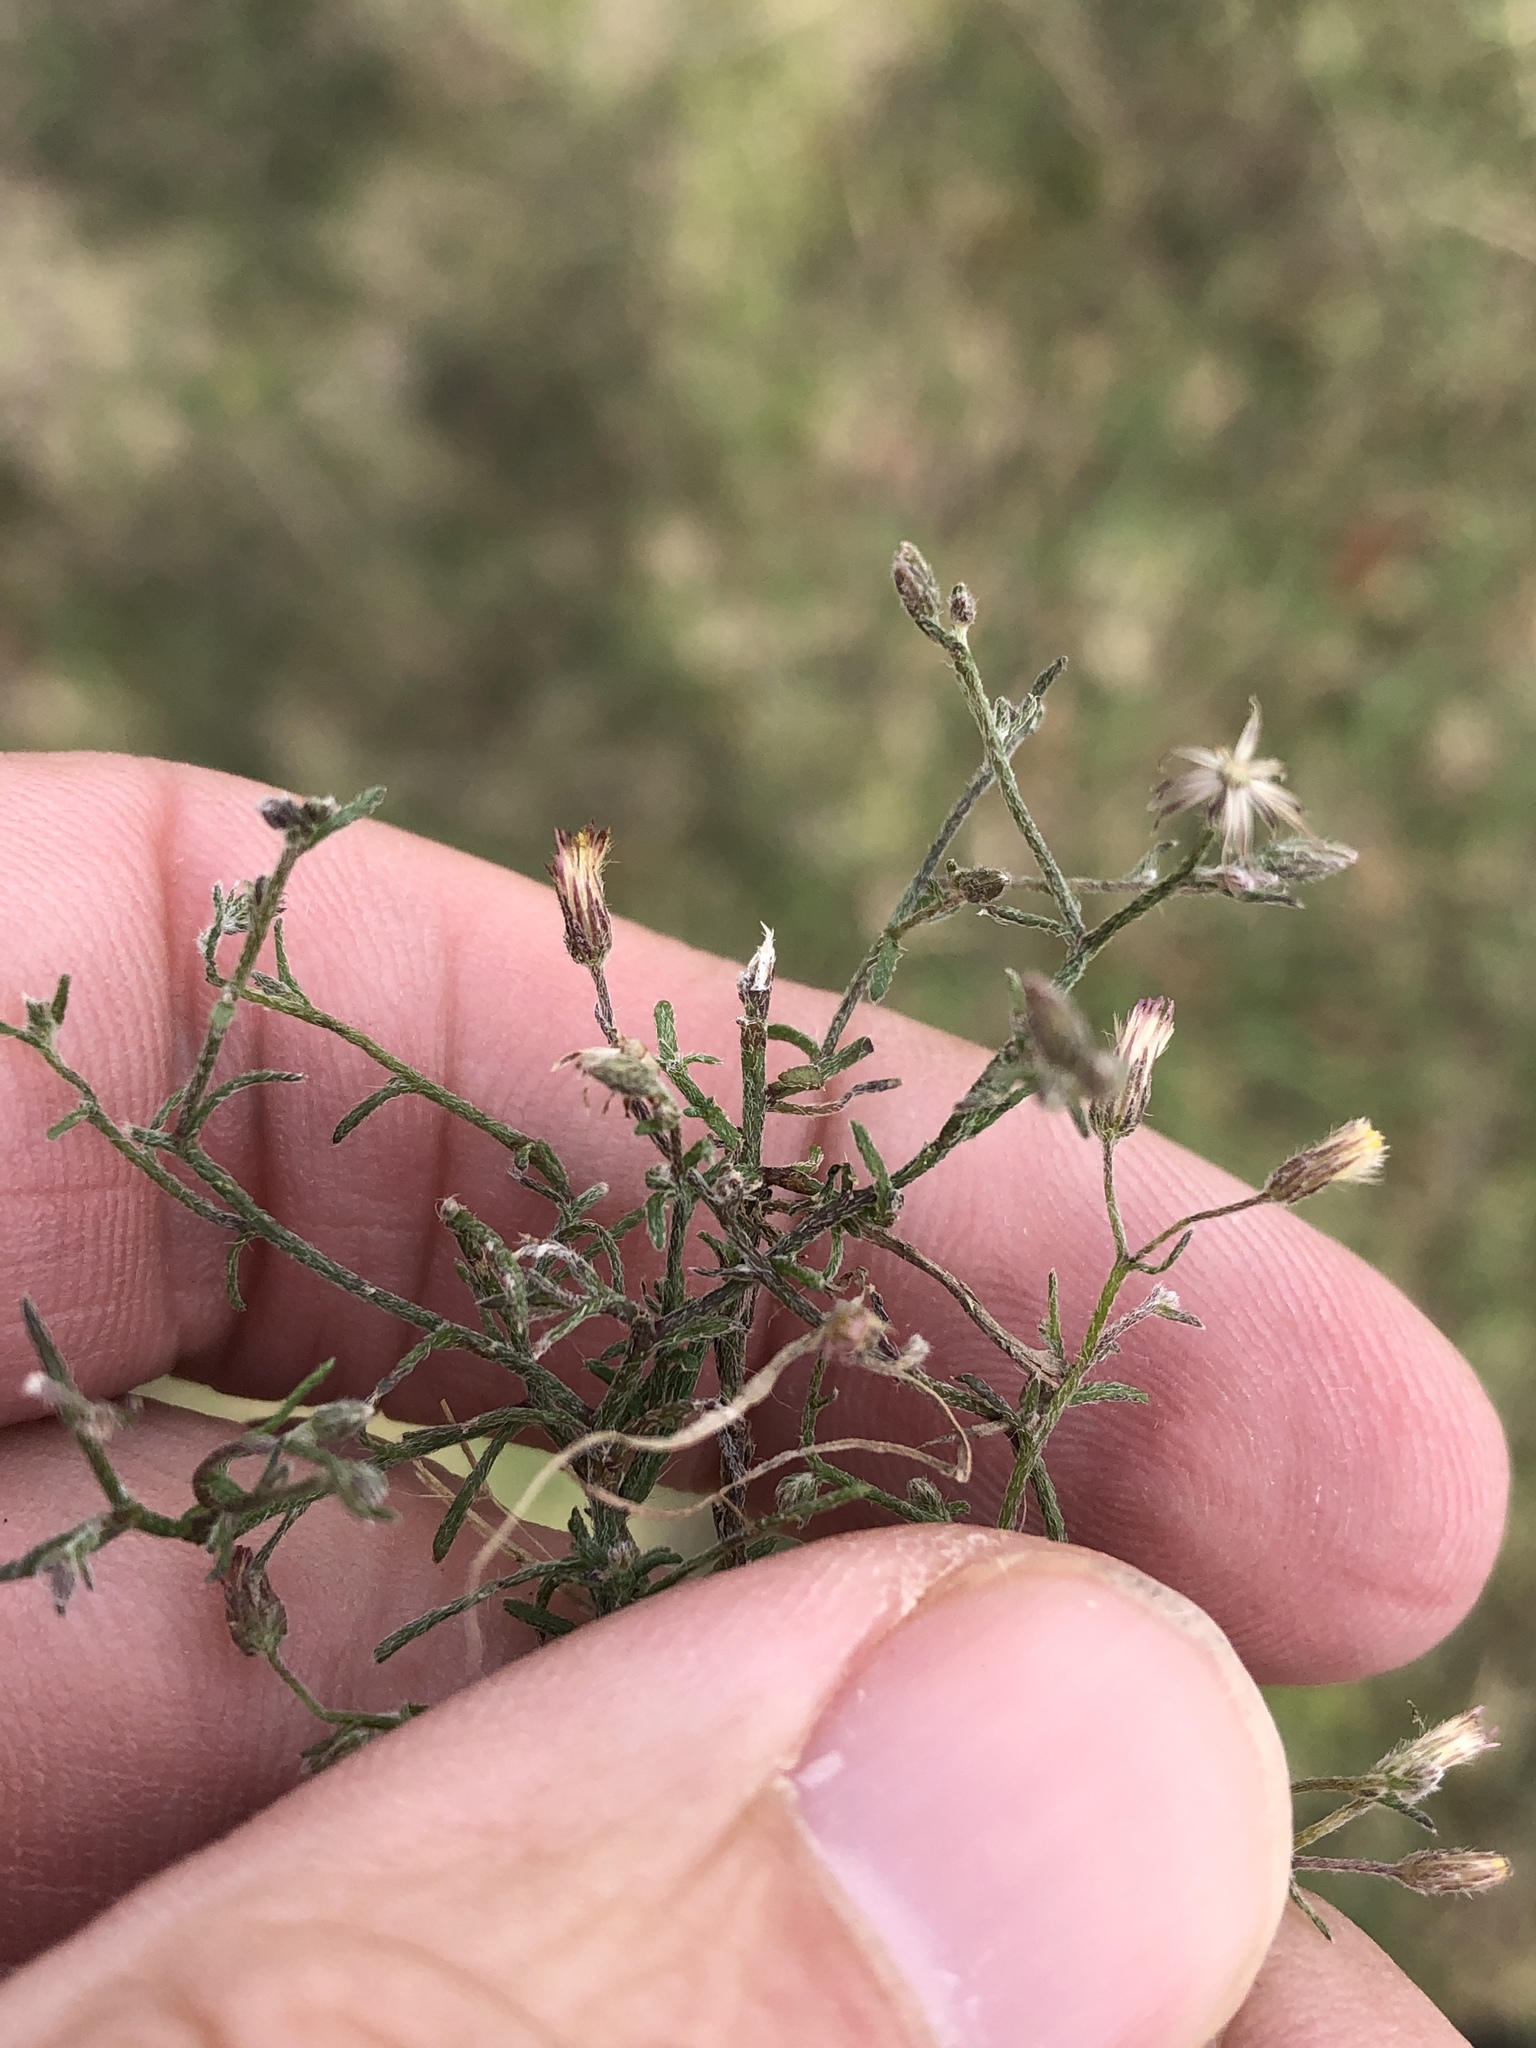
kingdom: Plantae
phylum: Tracheophyta
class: Magnoliopsida
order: Asterales
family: Asteraceae
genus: Erigeron
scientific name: Erigeron divaricatus
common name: Dwarf conyza
